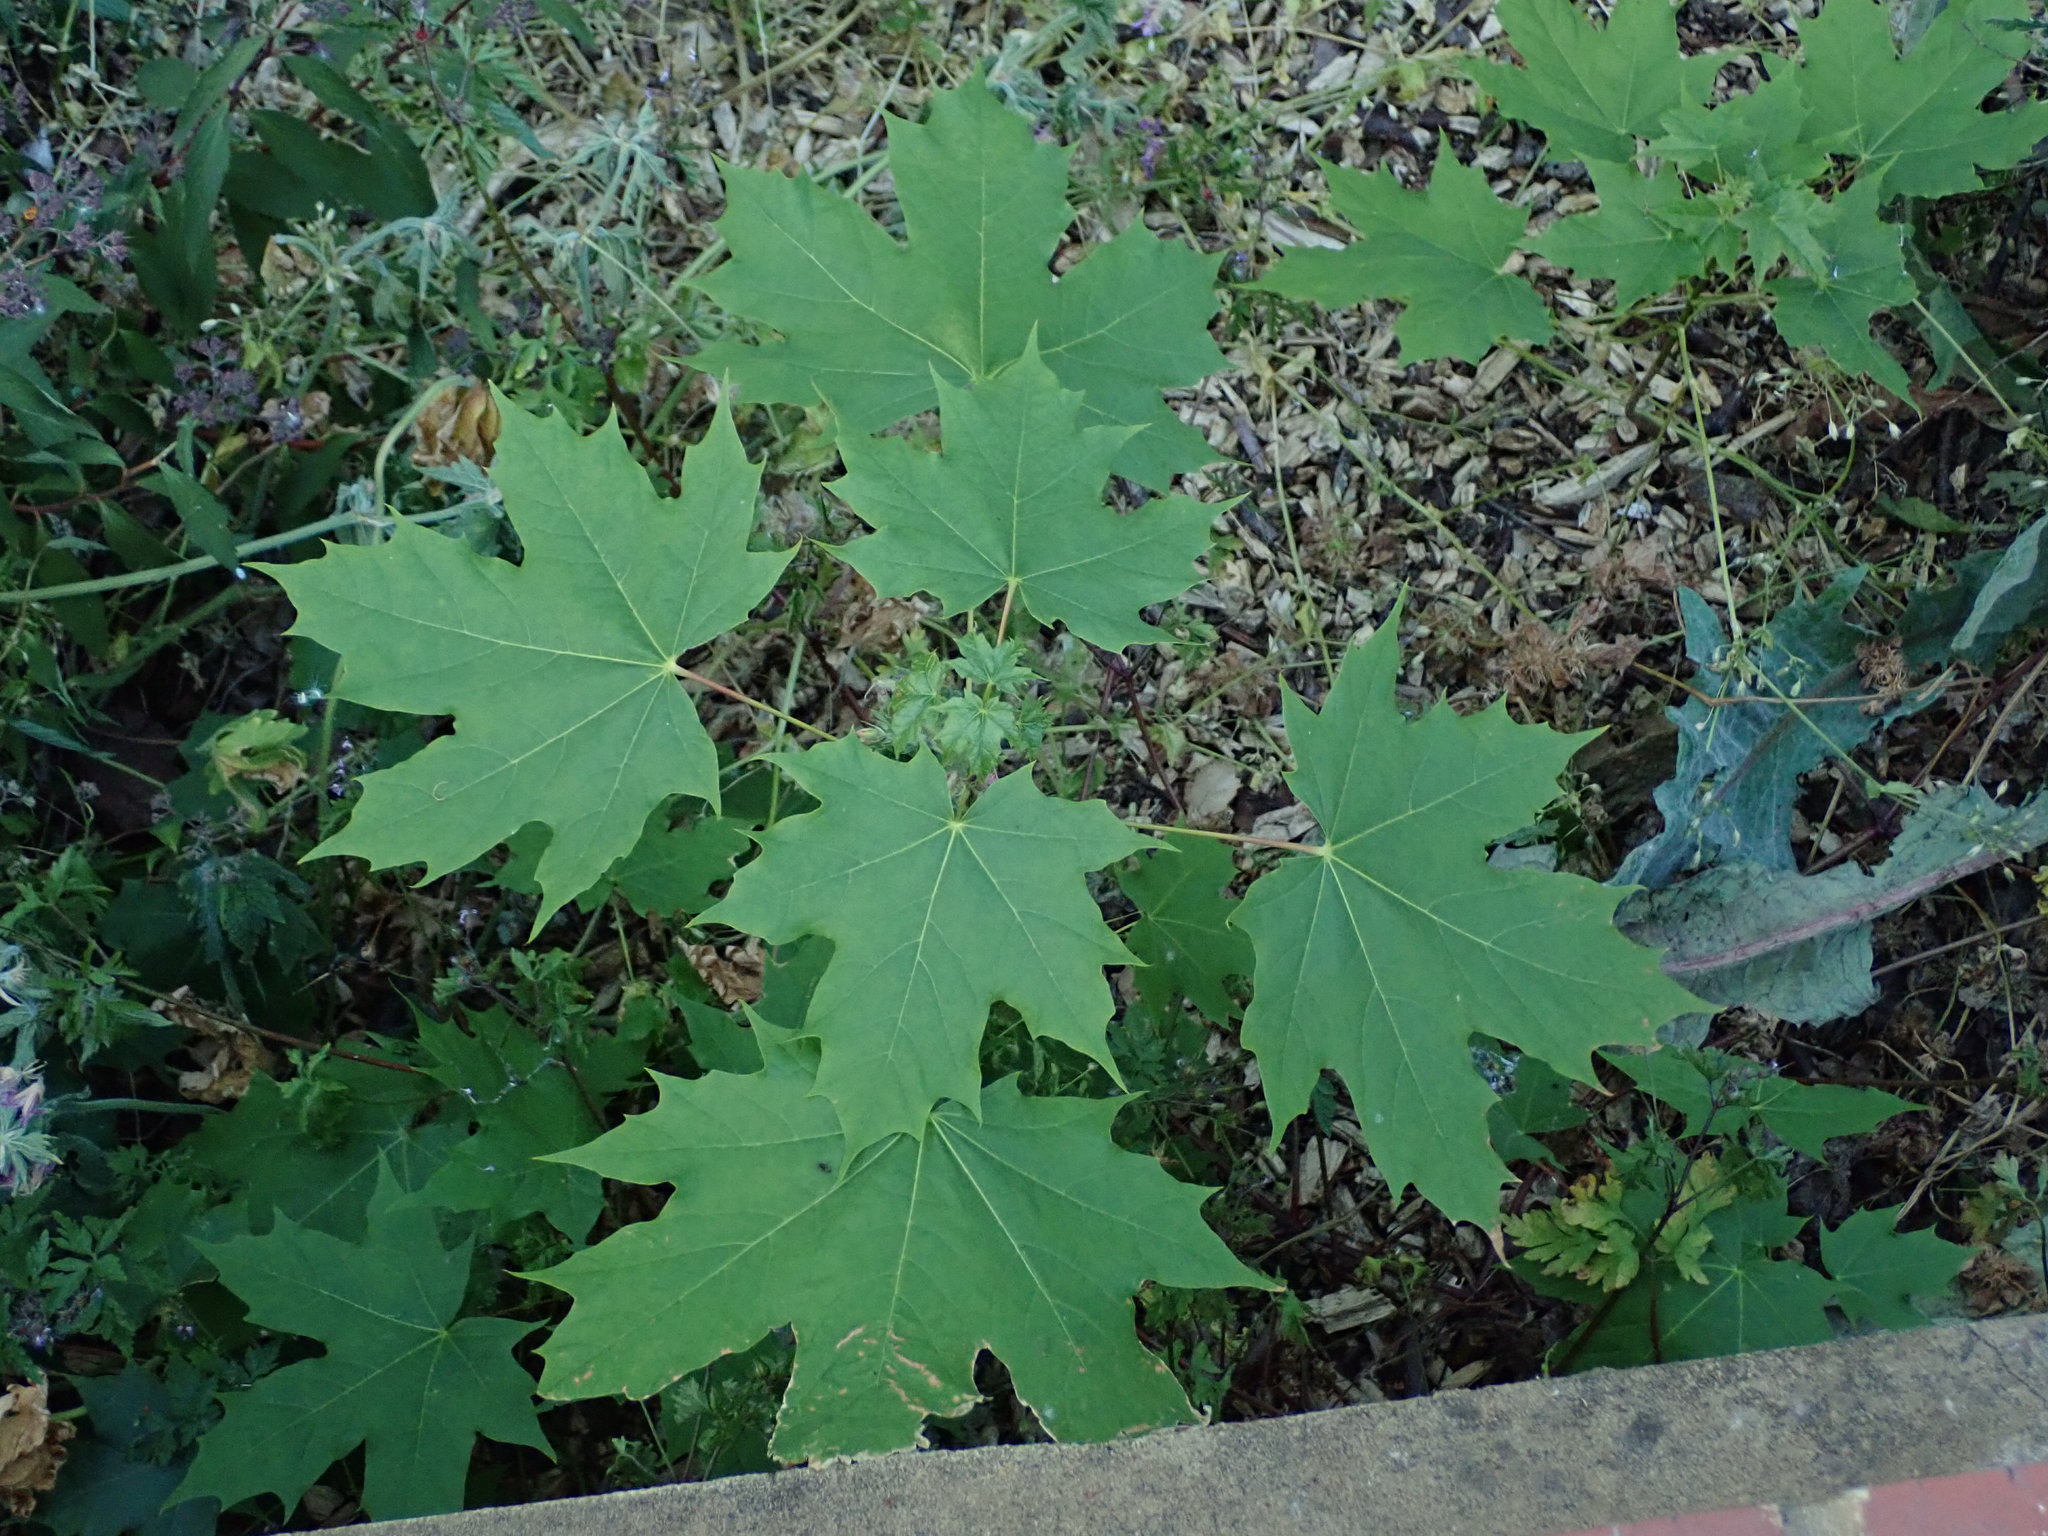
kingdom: Plantae
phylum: Tracheophyta
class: Magnoliopsida
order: Sapindales
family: Sapindaceae
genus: Acer
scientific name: Acer platanoides
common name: Norway maple
